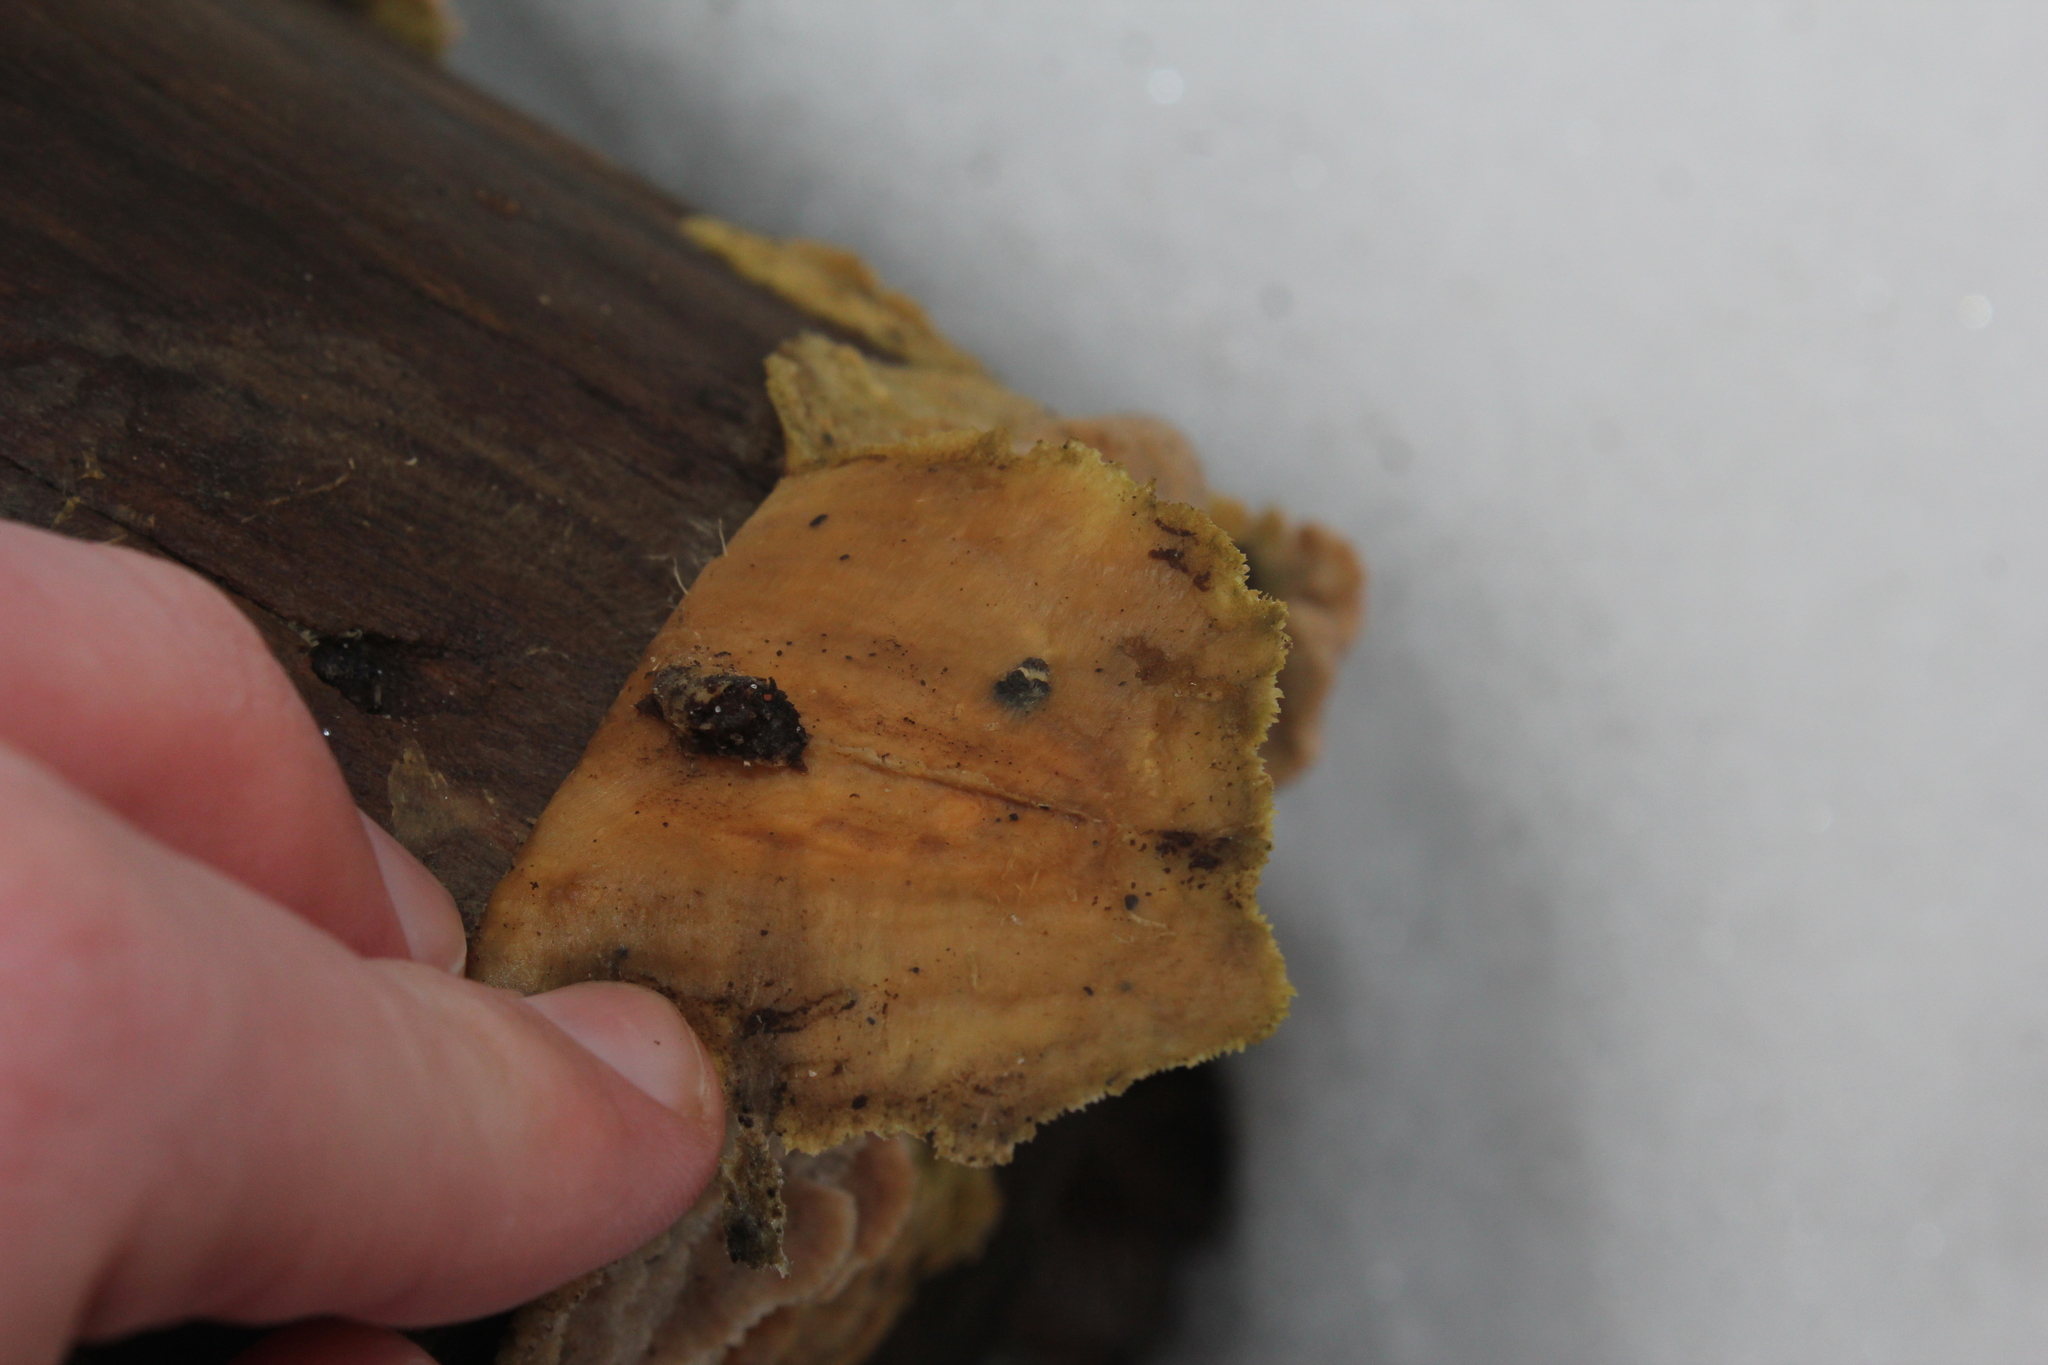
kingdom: Fungi
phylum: Basidiomycota
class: Agaricomycetes
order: Polyporales
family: Polyporaceae
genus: Trametes
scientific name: Trametes versicolor
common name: Turkeytail
